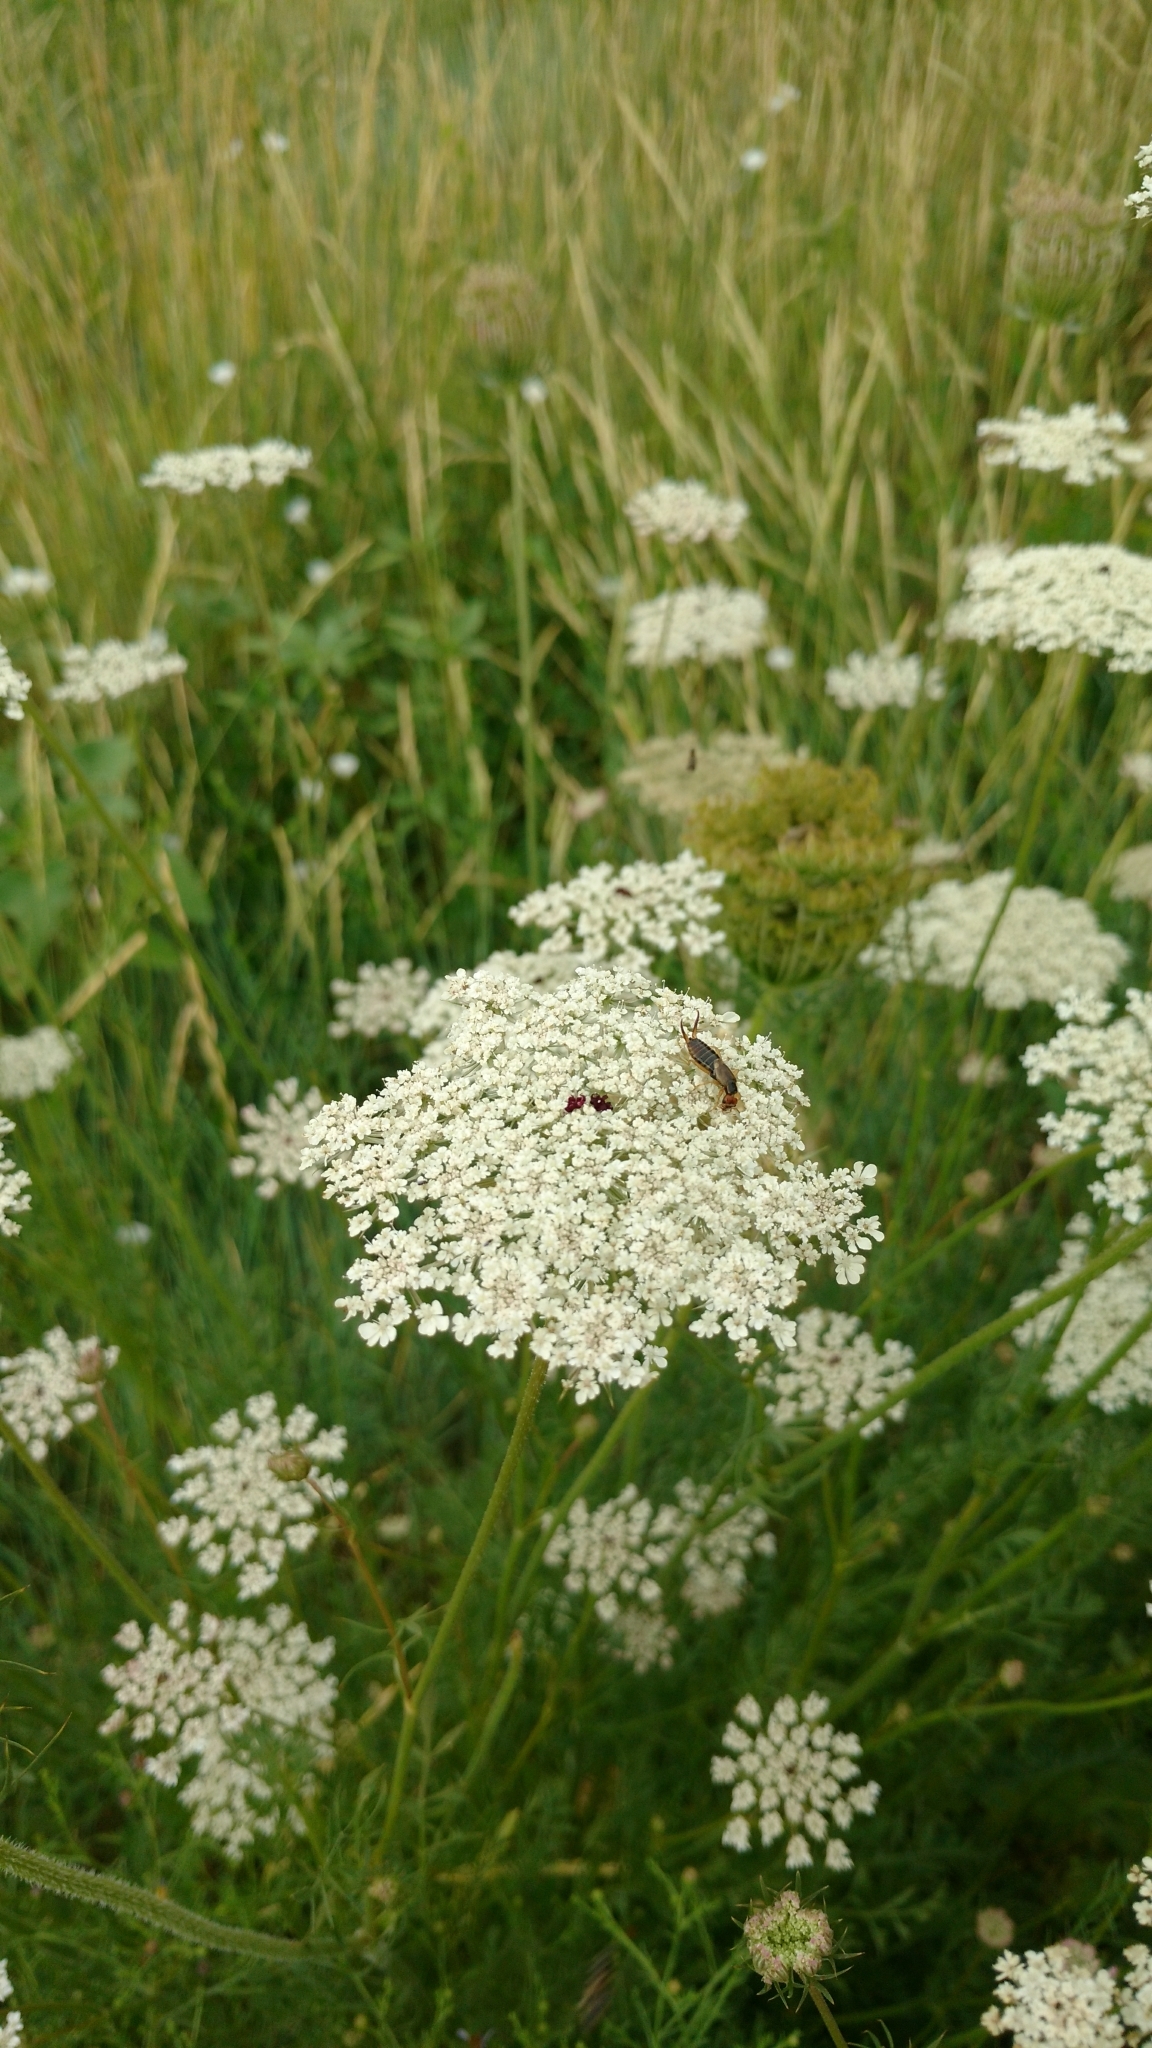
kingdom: Animalia
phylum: Arthropoda
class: Insecta
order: Dermaptera
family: Forficulidae
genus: Forficula
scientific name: Forficula
